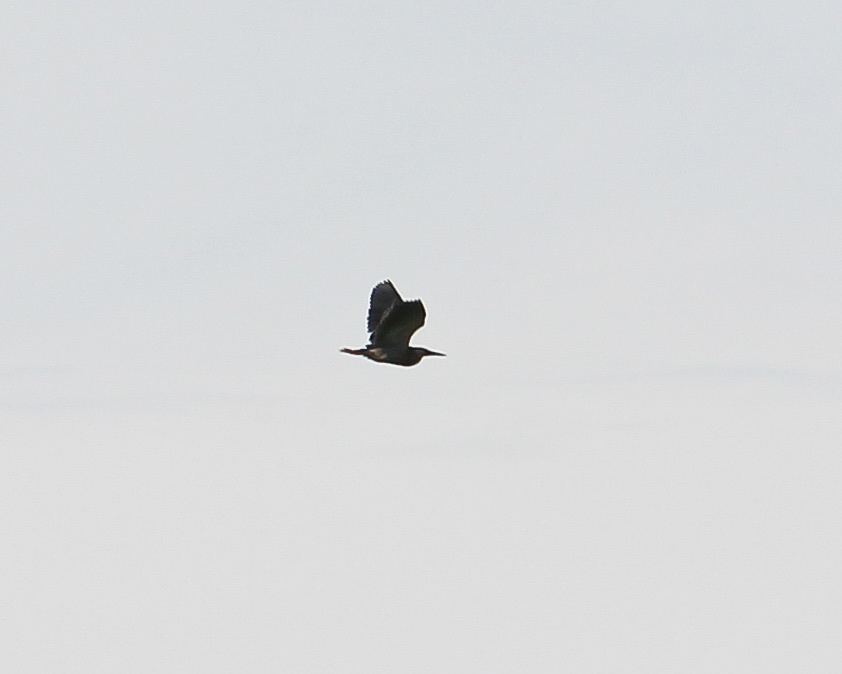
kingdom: Animalia
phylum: Chordata
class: Aves
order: Pelecaniformes
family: Ardeidae
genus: Nycticorax
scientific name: Nycticorax nycticorax
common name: Black-crowned night heron
